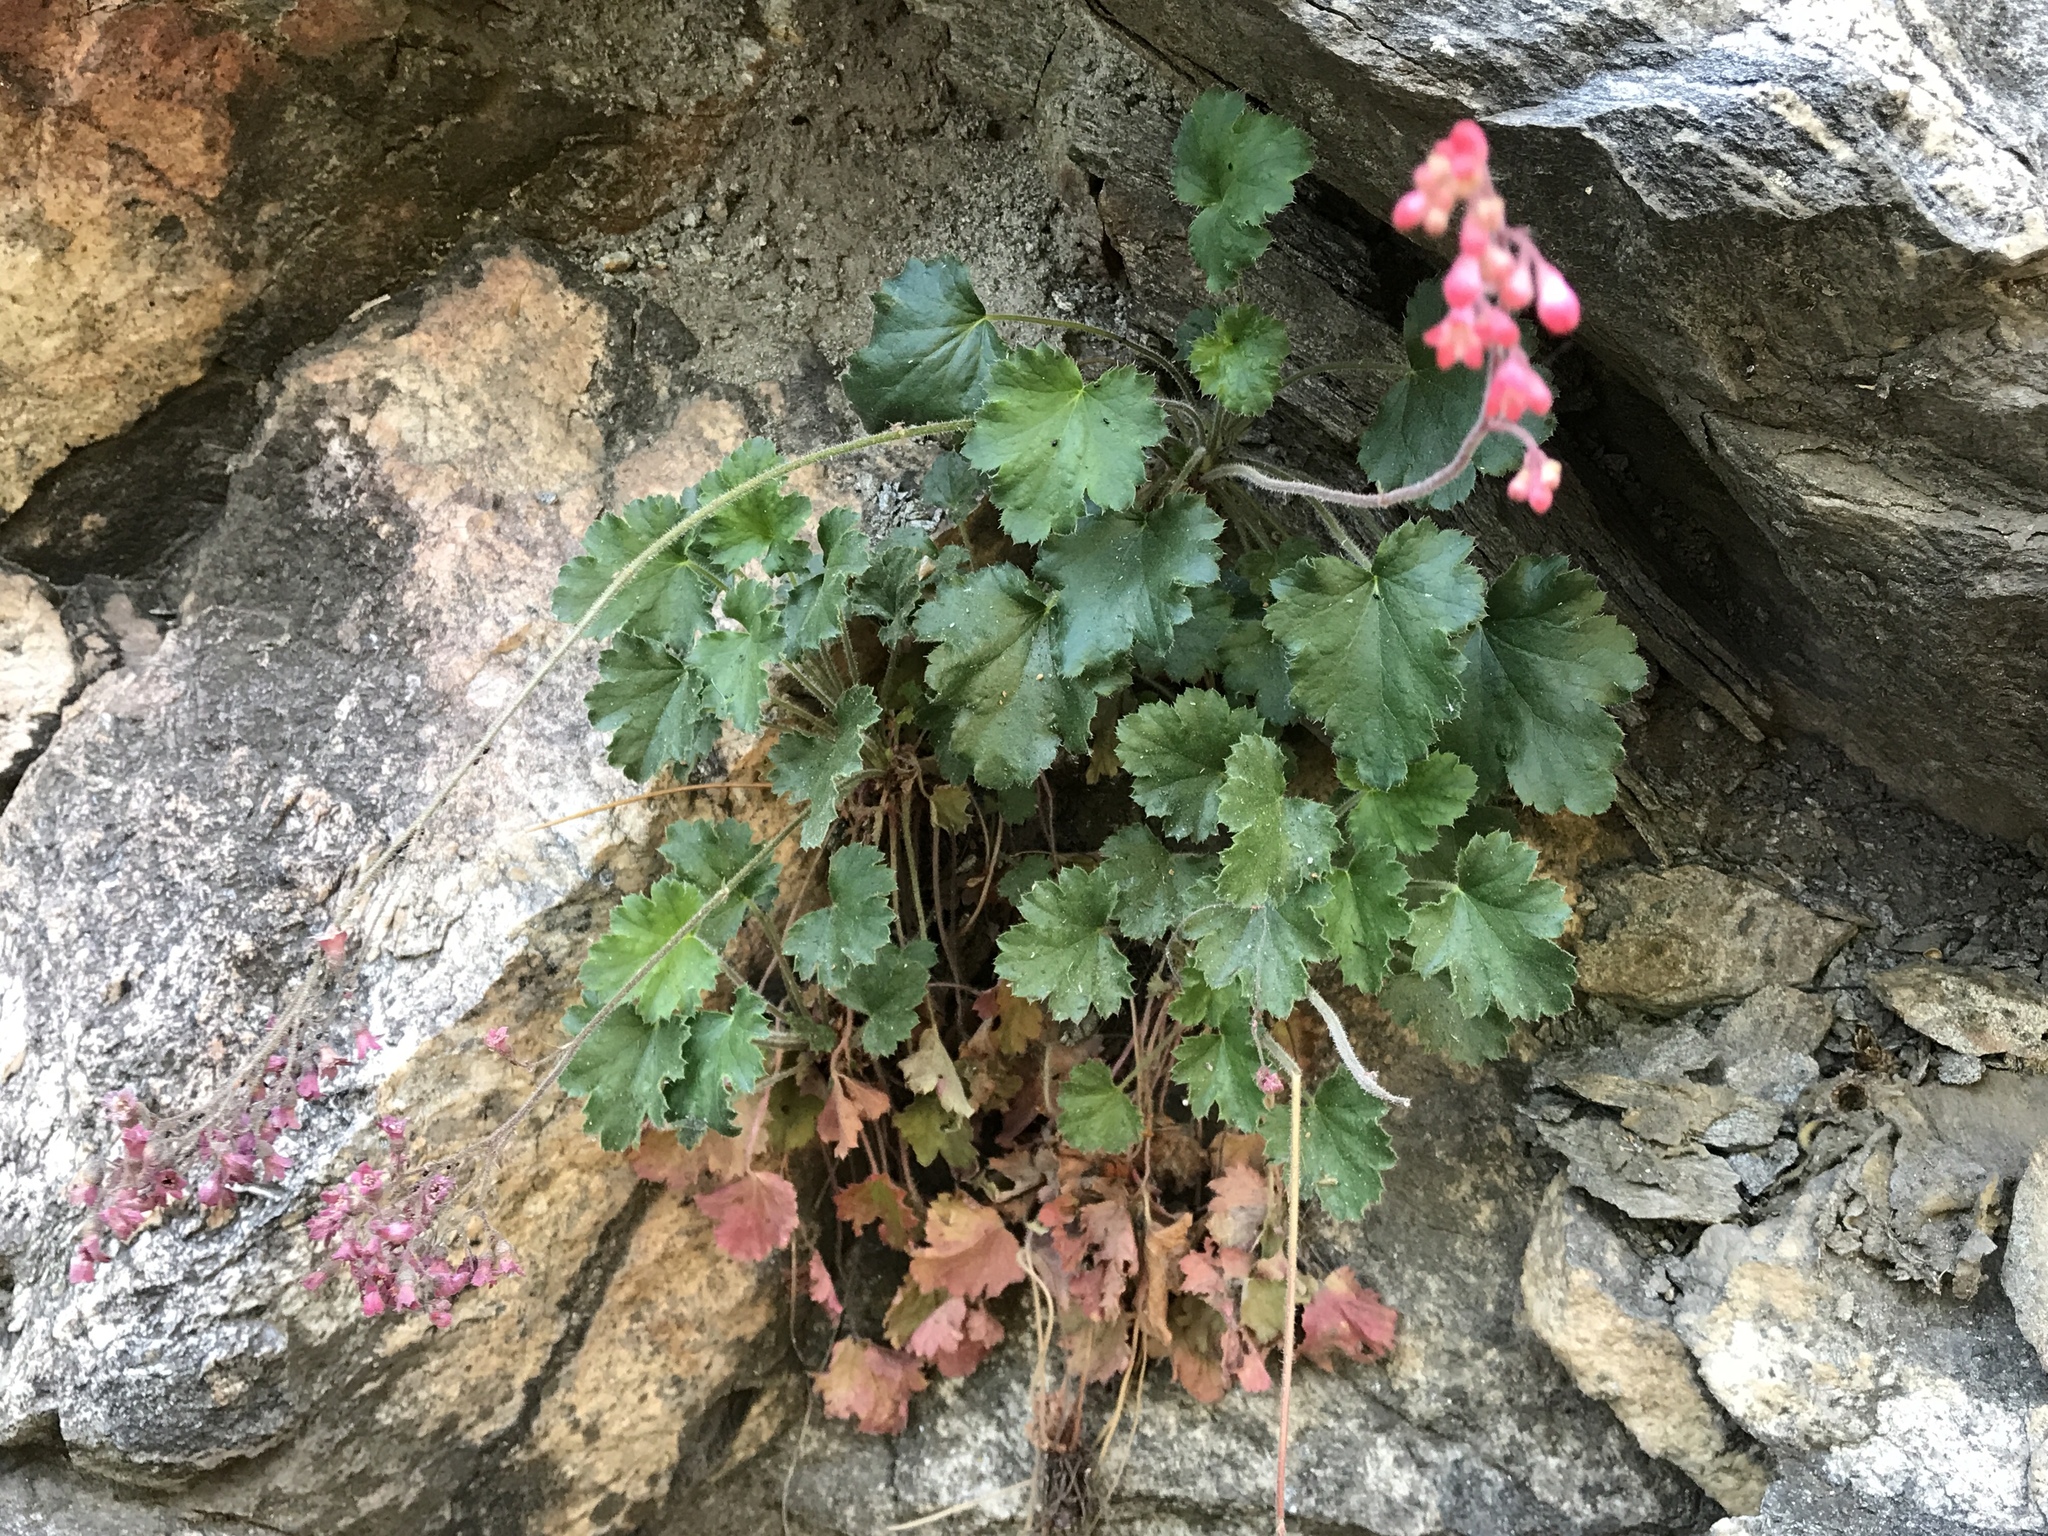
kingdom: Plantae
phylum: Tracheophyta
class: Magnoliopsida
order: Saxifragales
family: Saxifragaceae
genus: Heuchera
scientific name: Heuchera sanguinea
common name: Coralbells
